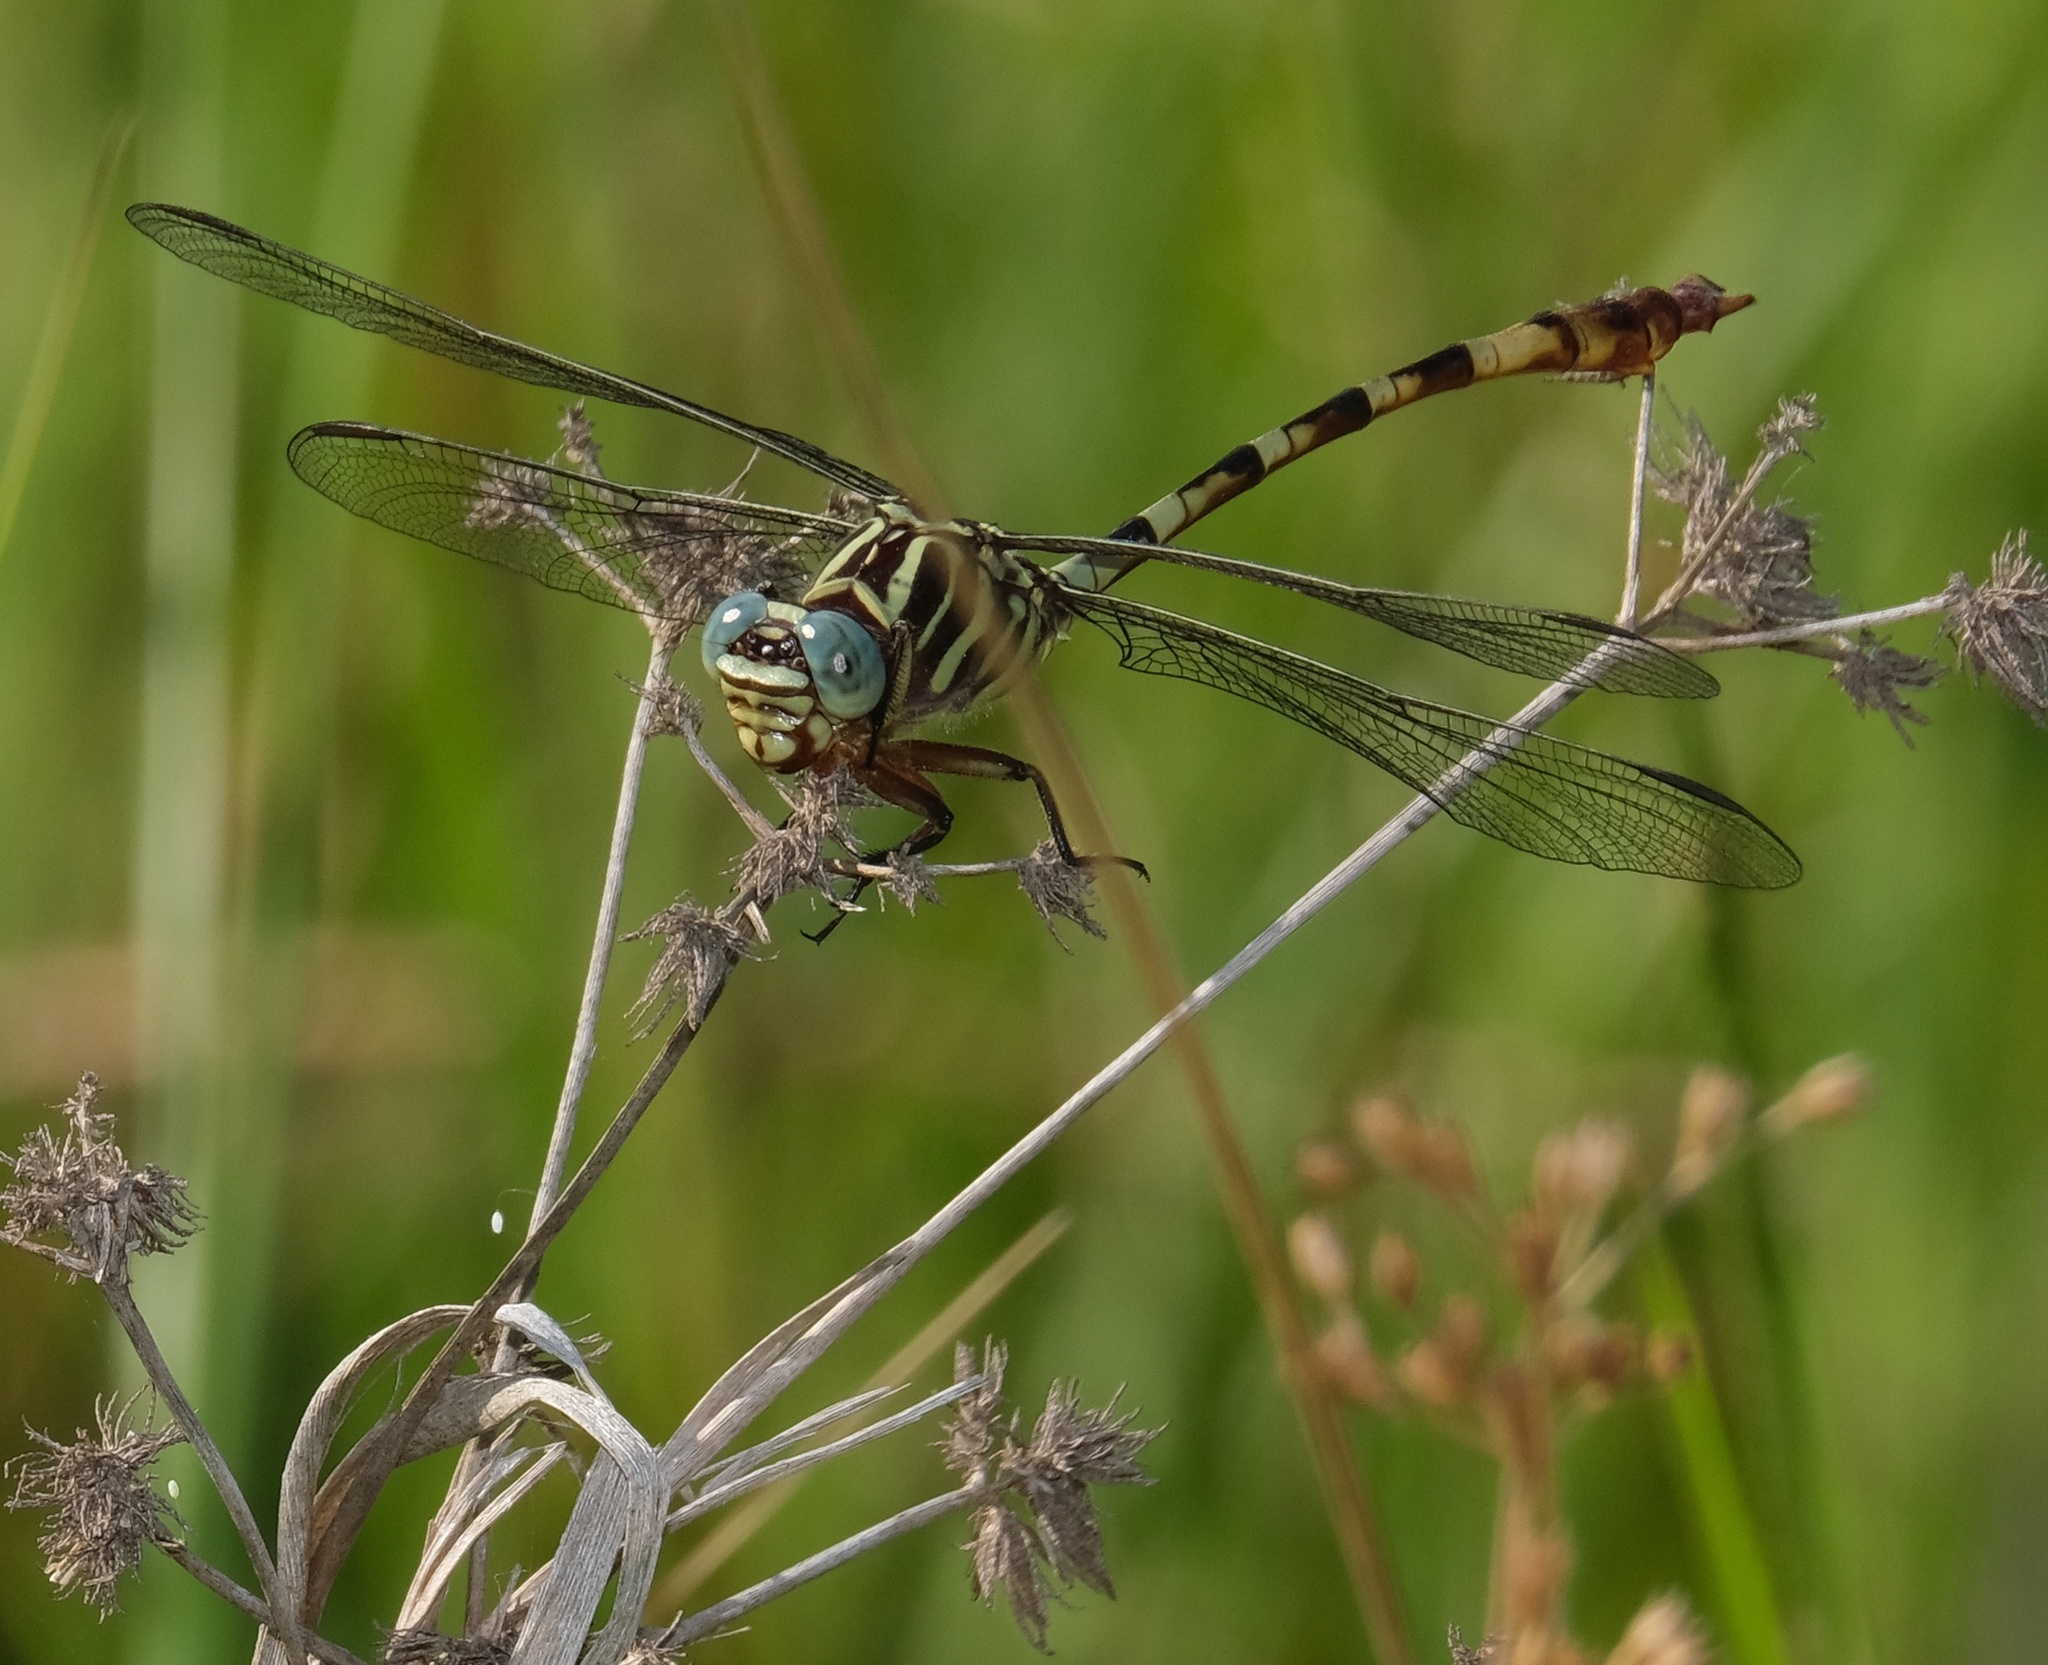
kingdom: Animalia
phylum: Arthropoda
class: Insecta
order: Odonata
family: Gomphidae
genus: Aphylla
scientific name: Aphylla angustifolia
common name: Broad-striped forceptail
